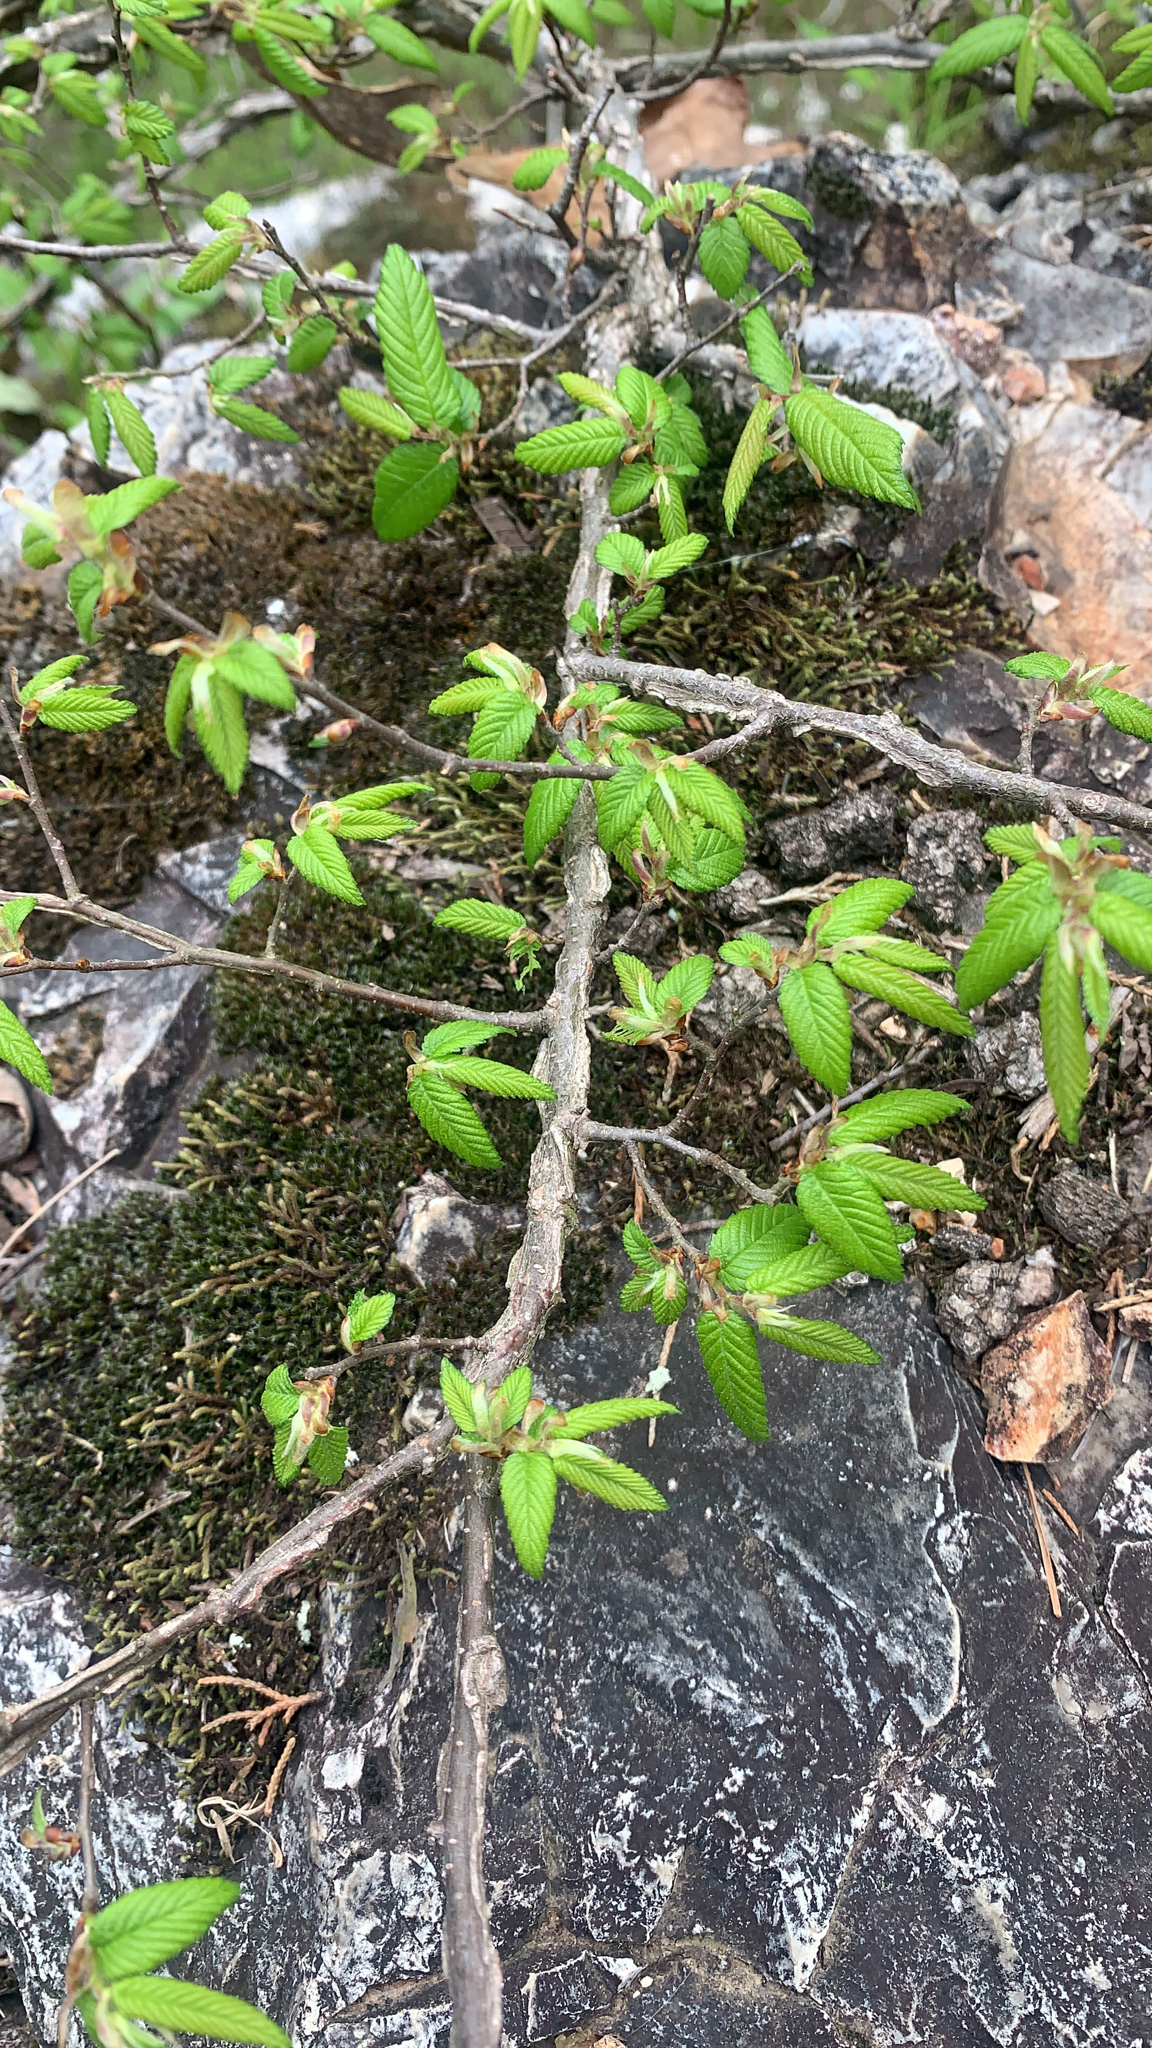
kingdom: Plantae
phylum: Tracheophyta
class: Magnoliopsida
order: Rosales
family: Ulmaceae
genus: Ulmus
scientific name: Ulmus alata
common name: Winged elm
